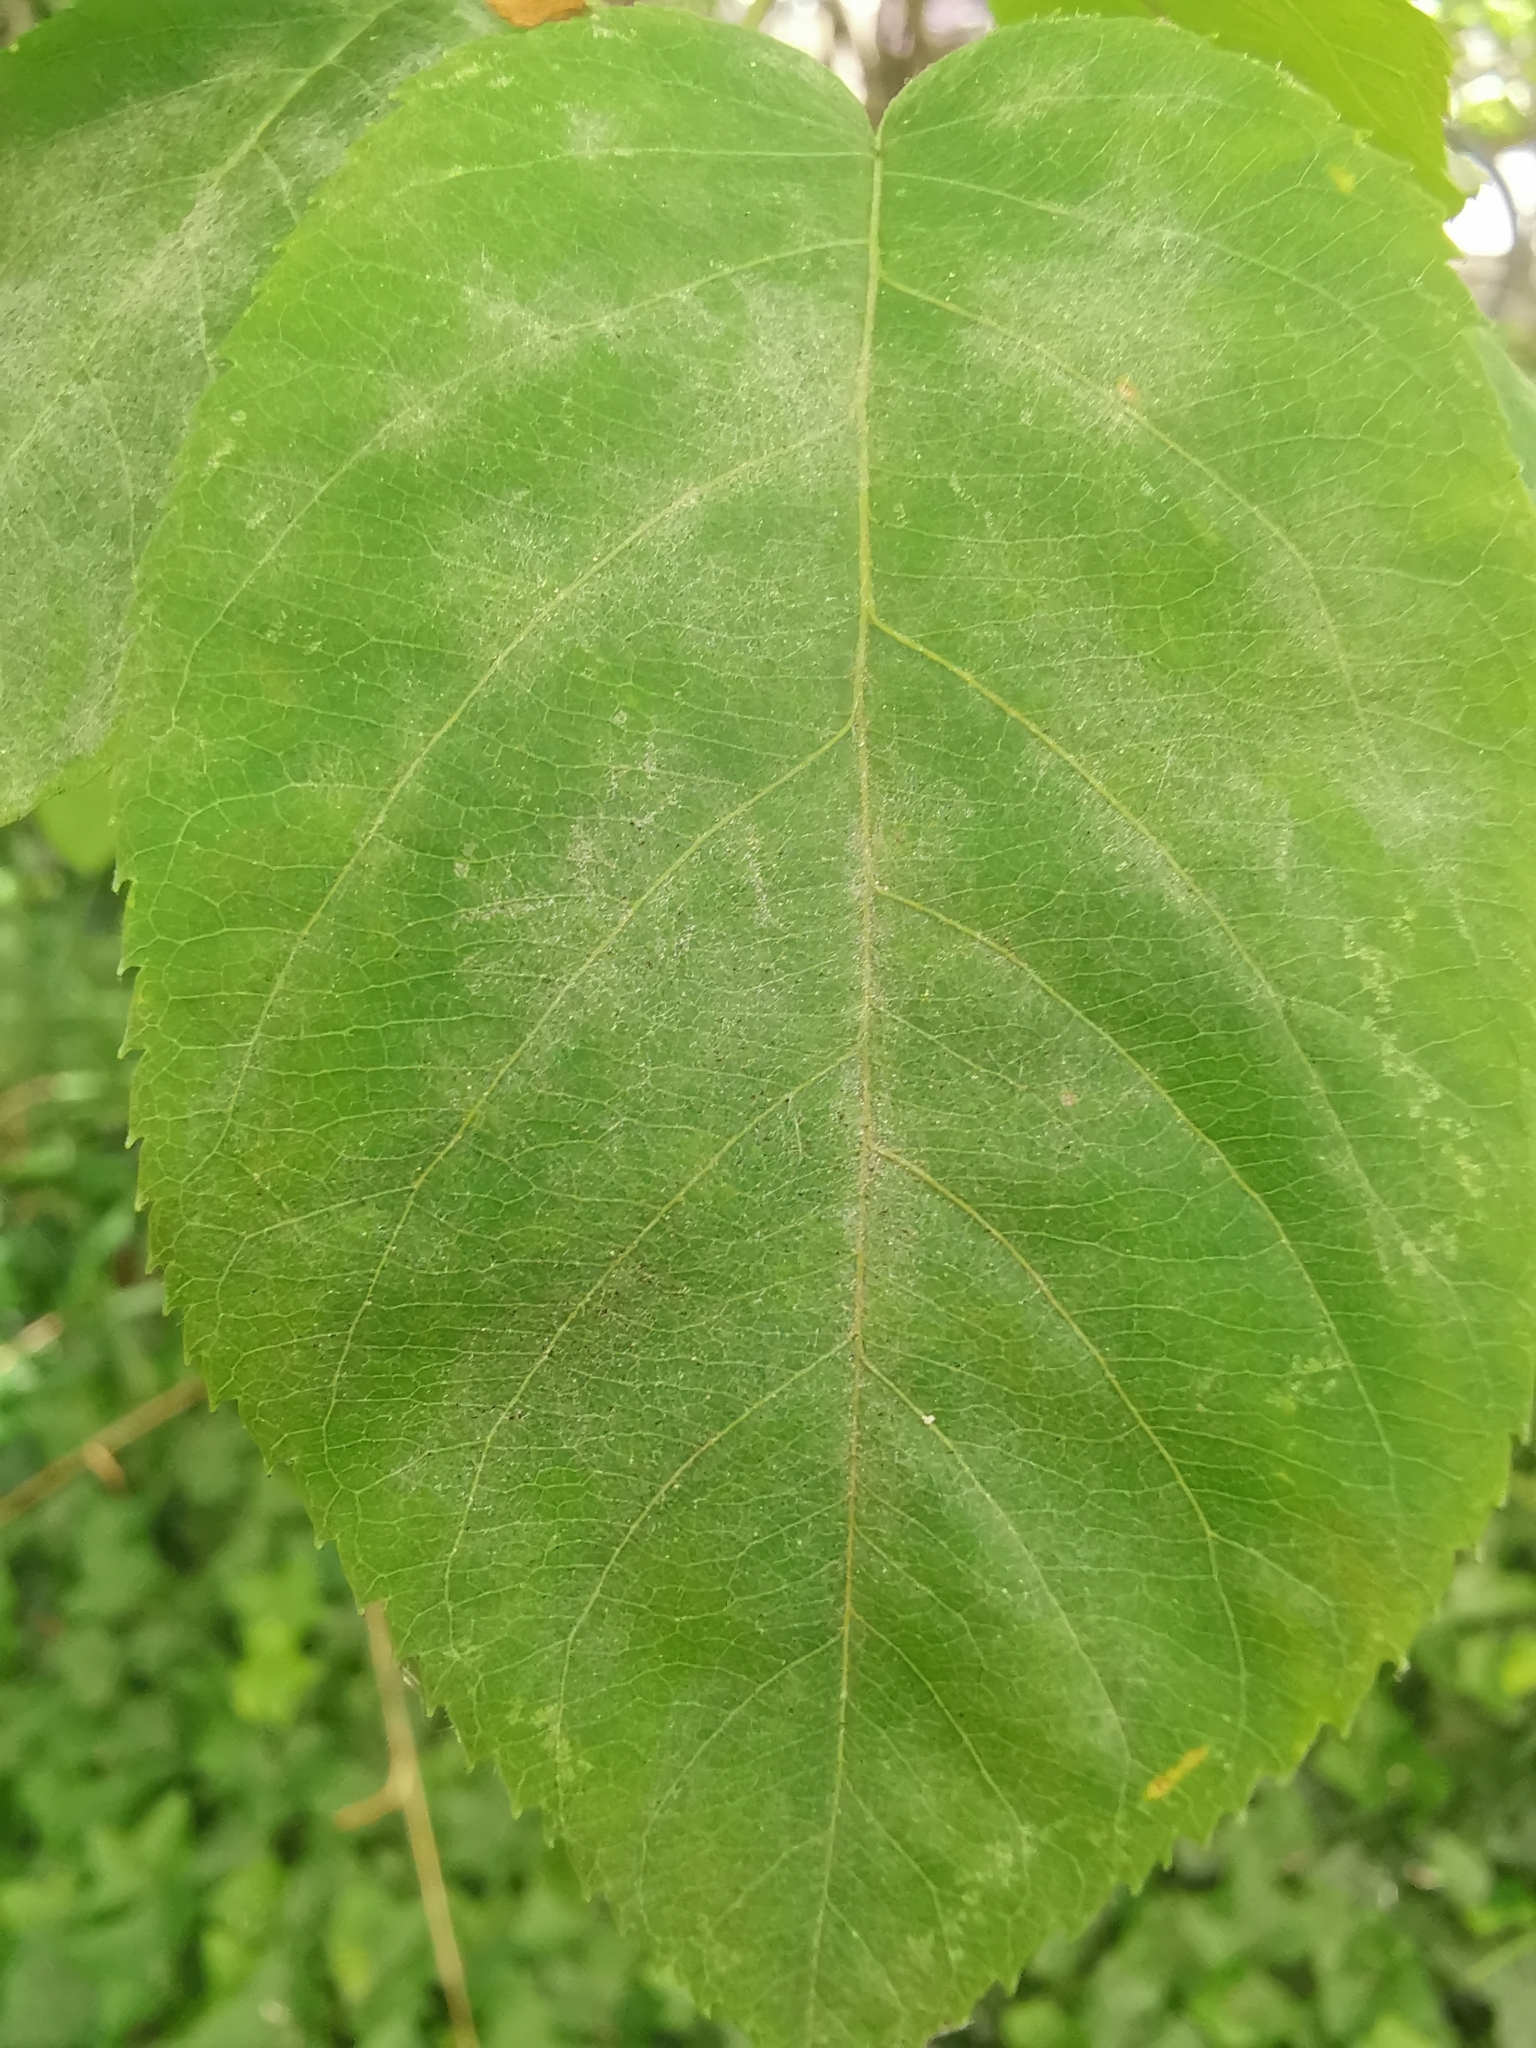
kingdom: Fungi
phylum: Ascomycota
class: Leotiomycetes
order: Helotiales
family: Erysiphaceae
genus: Podosphaera
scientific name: Podosphaera amelanchieris
